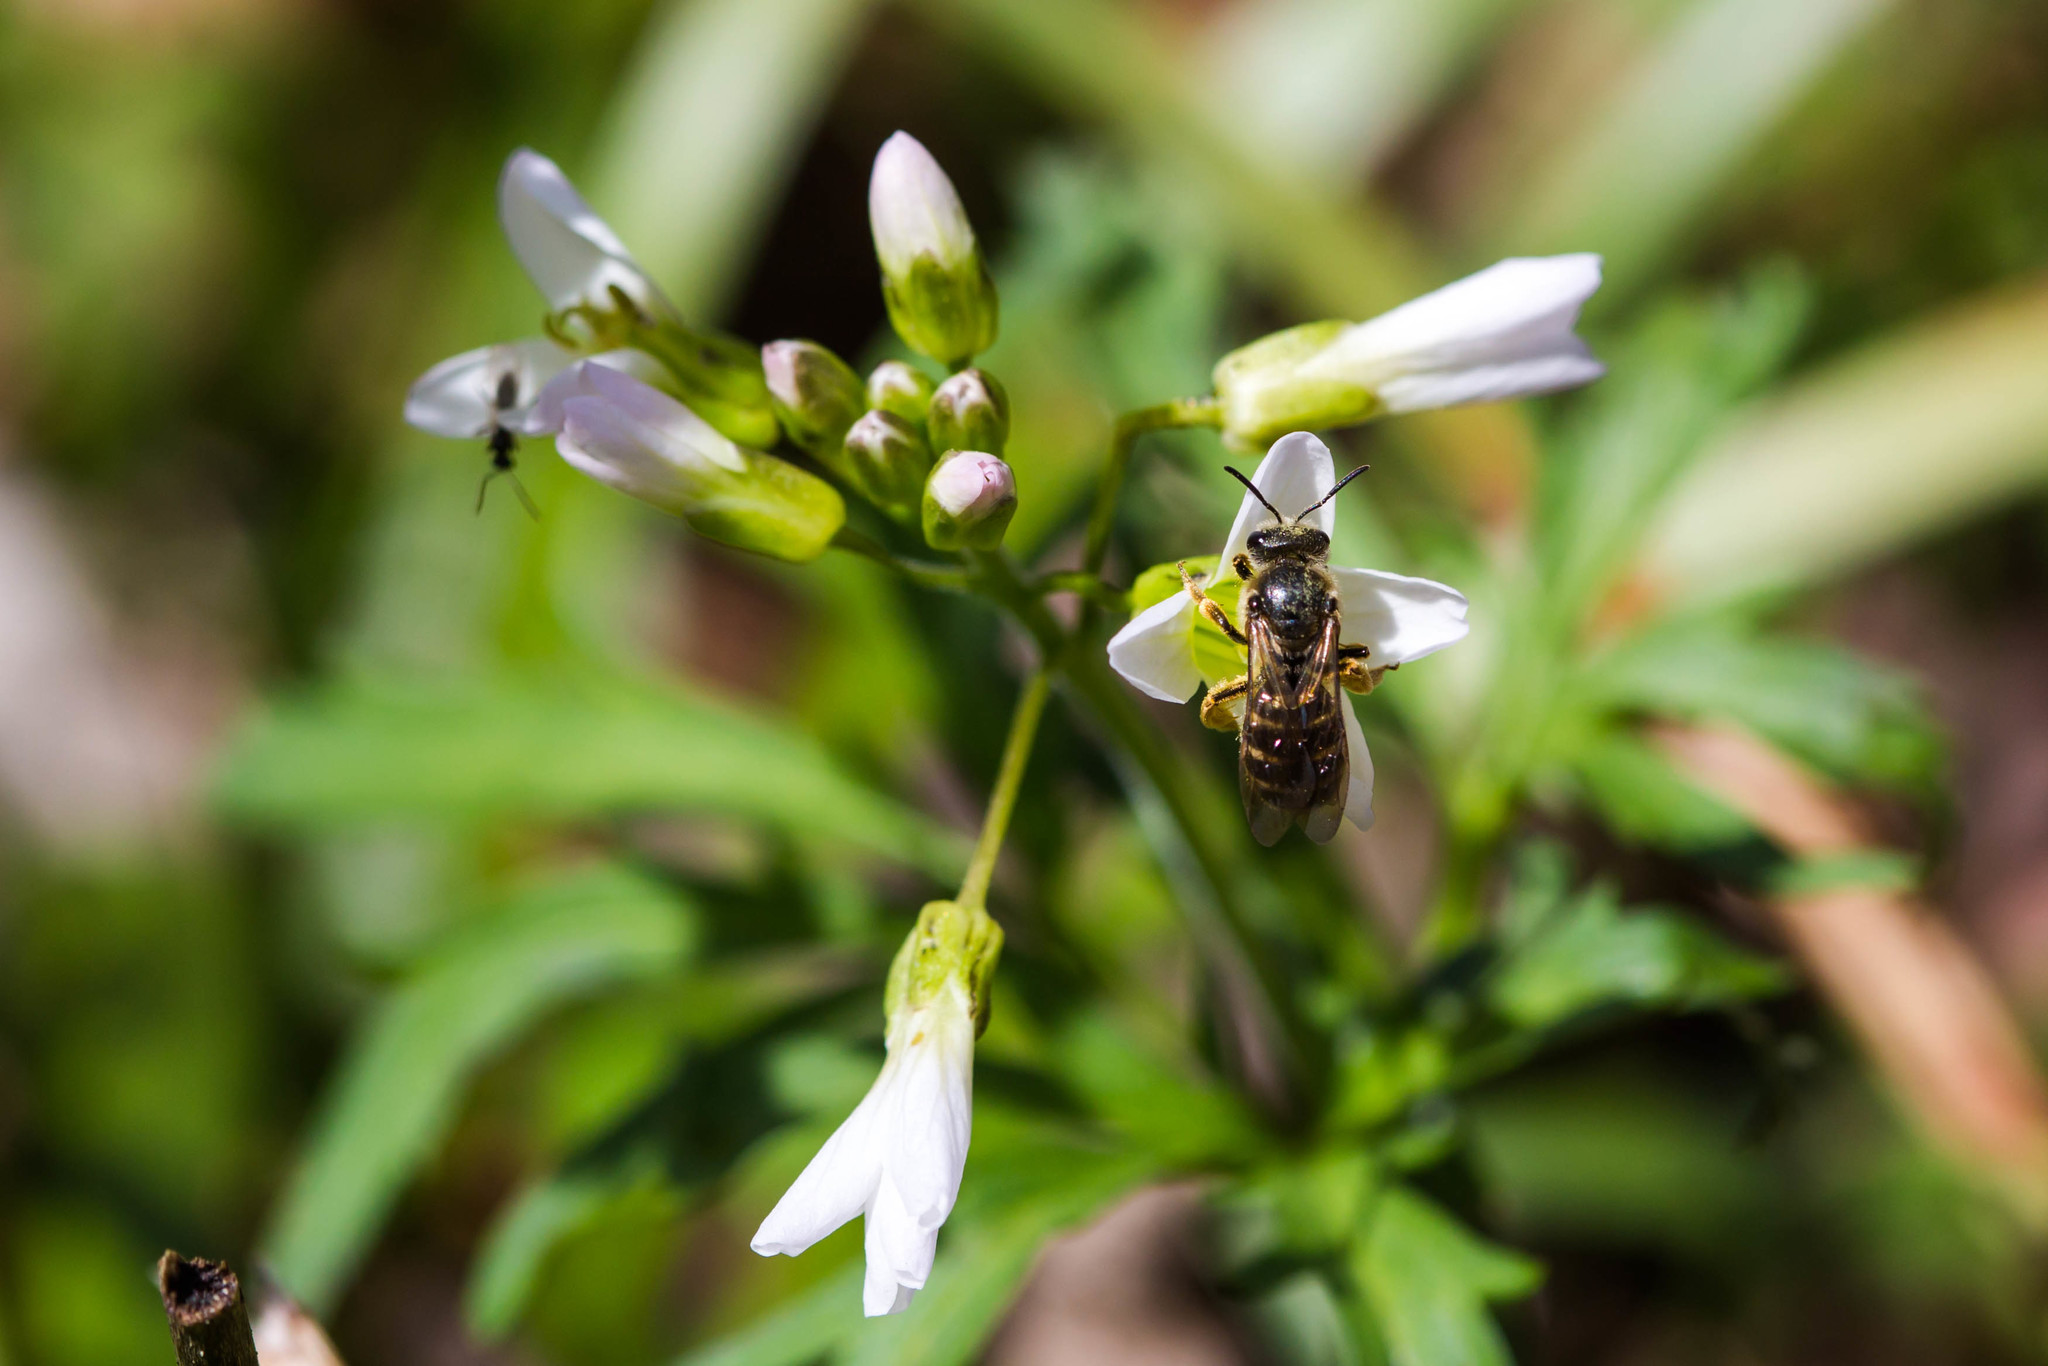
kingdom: Animalia
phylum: Arthropoda
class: Insecta
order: Hymenoptera
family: Halictidae
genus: Halictus
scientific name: Halictus rubicundus
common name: Orange-legged furrow bee
